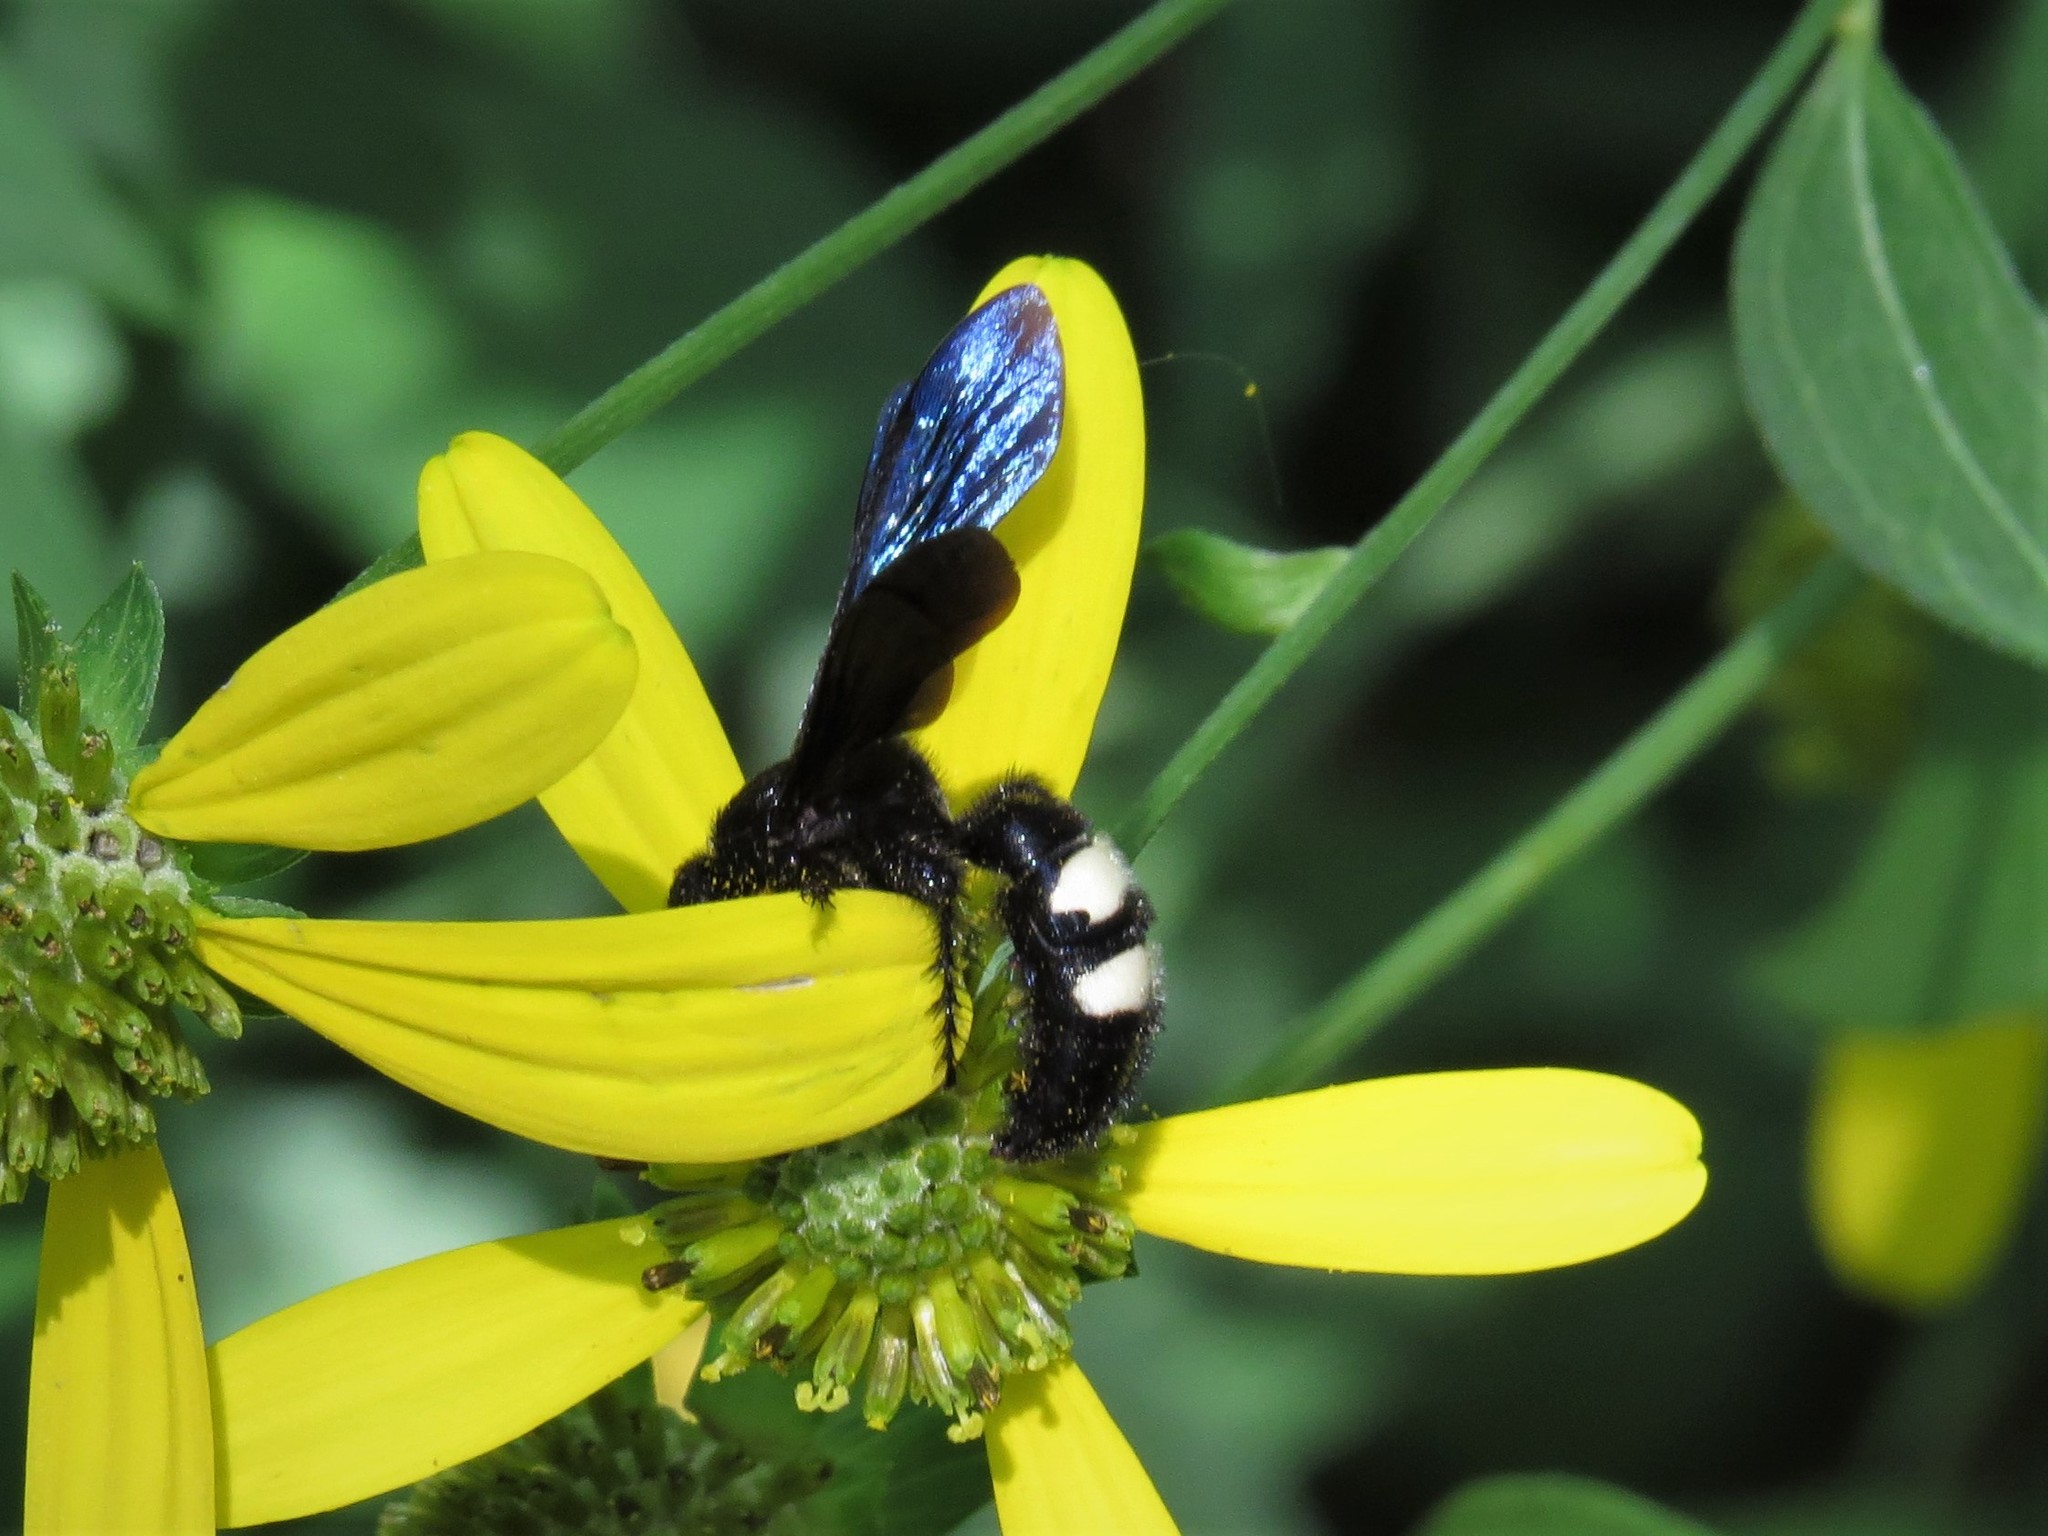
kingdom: Animalia
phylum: Arthropoda
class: Insecta
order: Hymenoptera
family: Scoliidae
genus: Scolia
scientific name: Scolia bicincta
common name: Double-banded scoliid wasp
